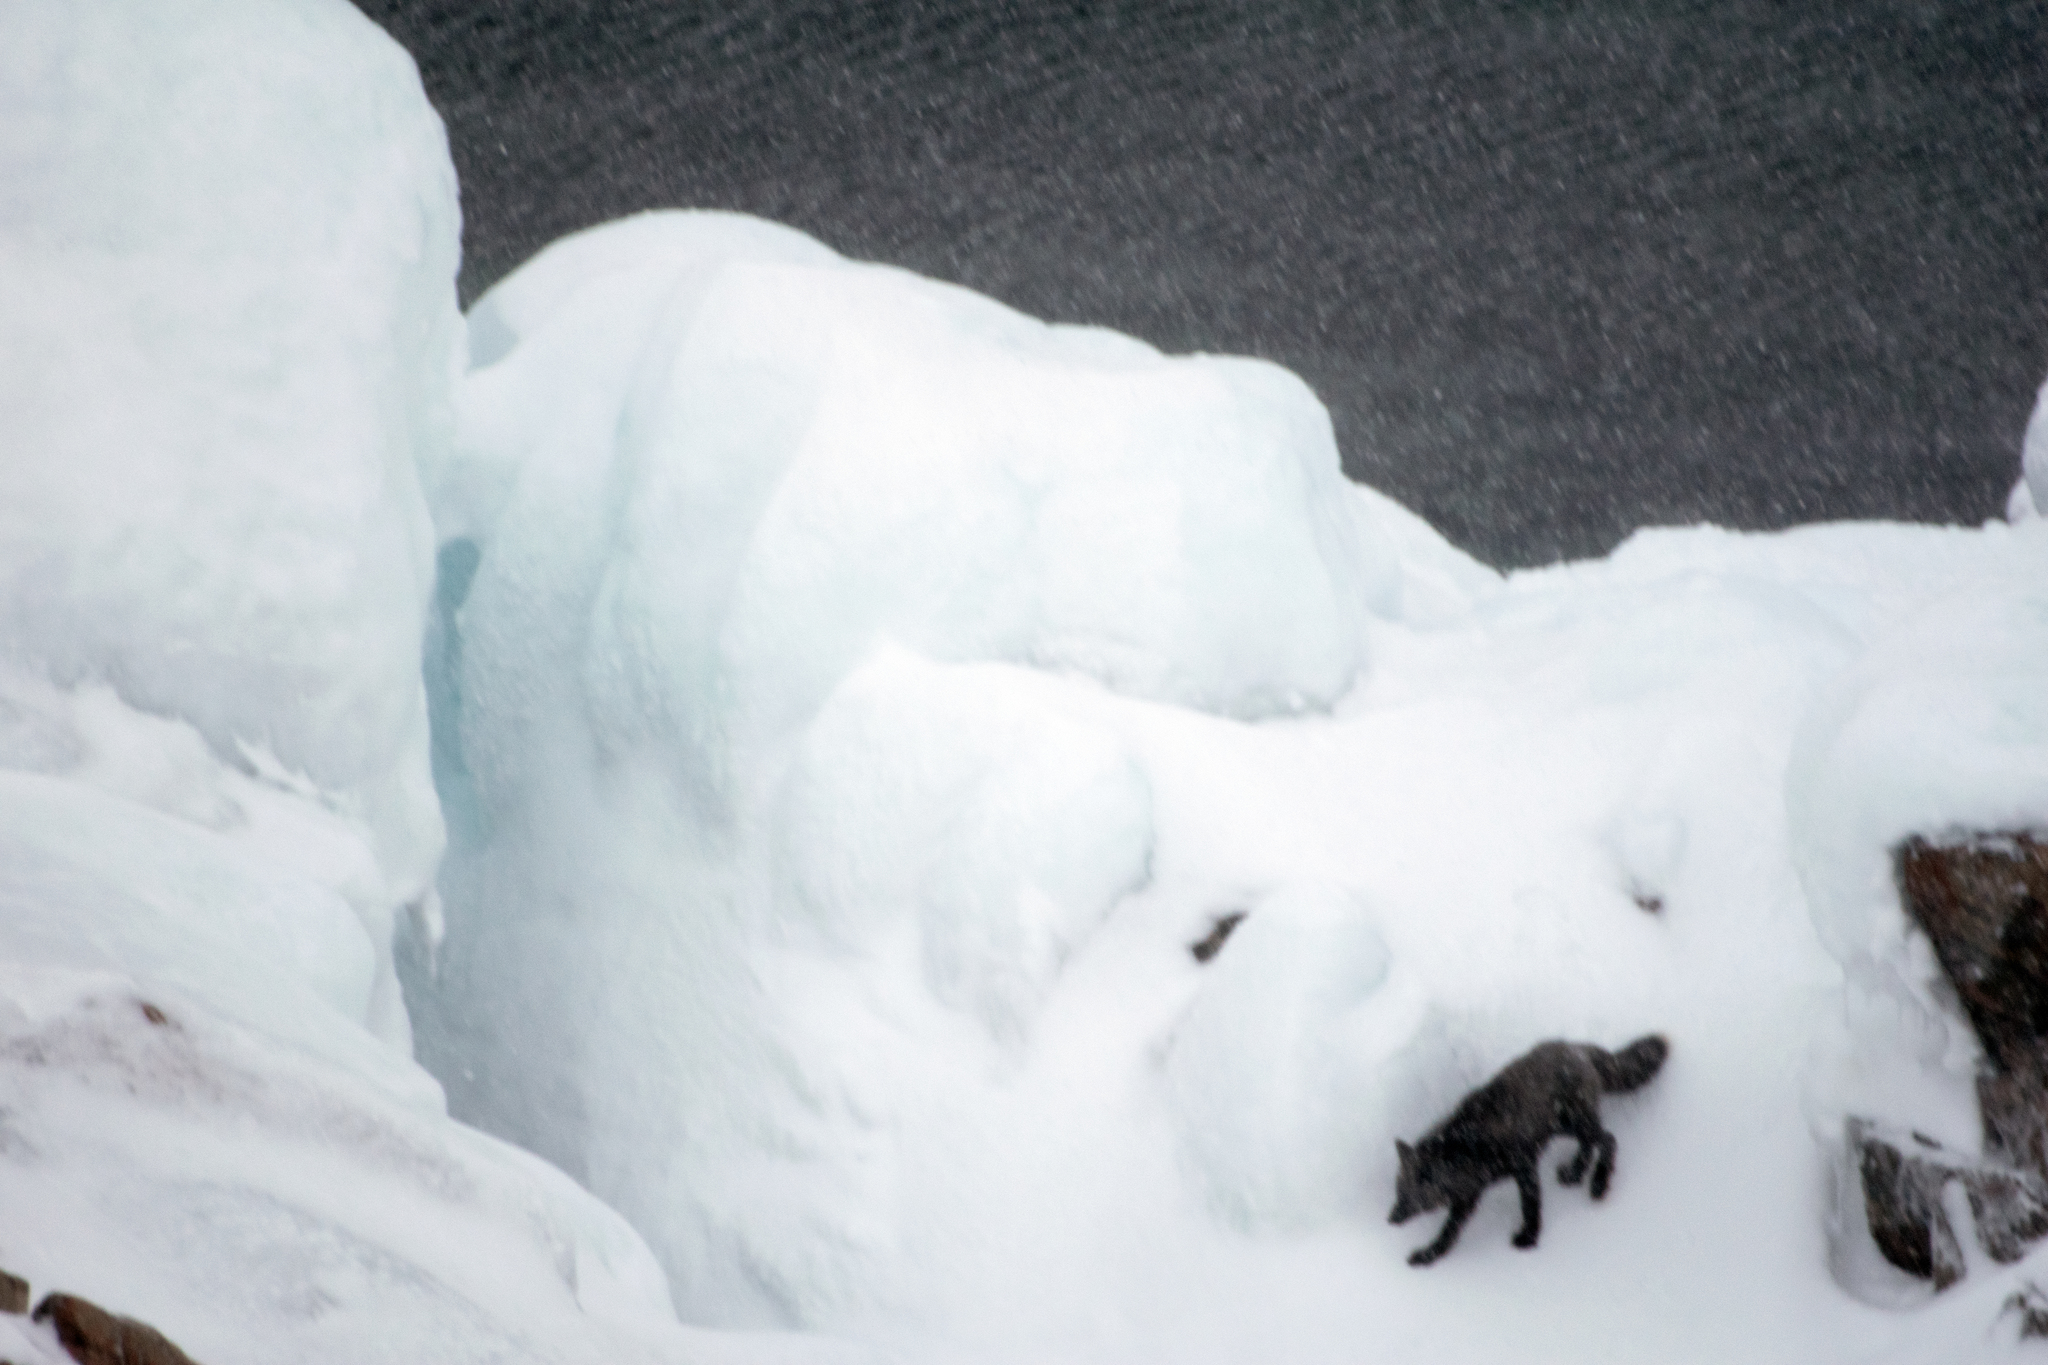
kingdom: Animalia
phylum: Chordata
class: Mammalia
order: Carnivora
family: Canidae
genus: Vulpes
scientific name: Vulpes vulpes
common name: Red fox
